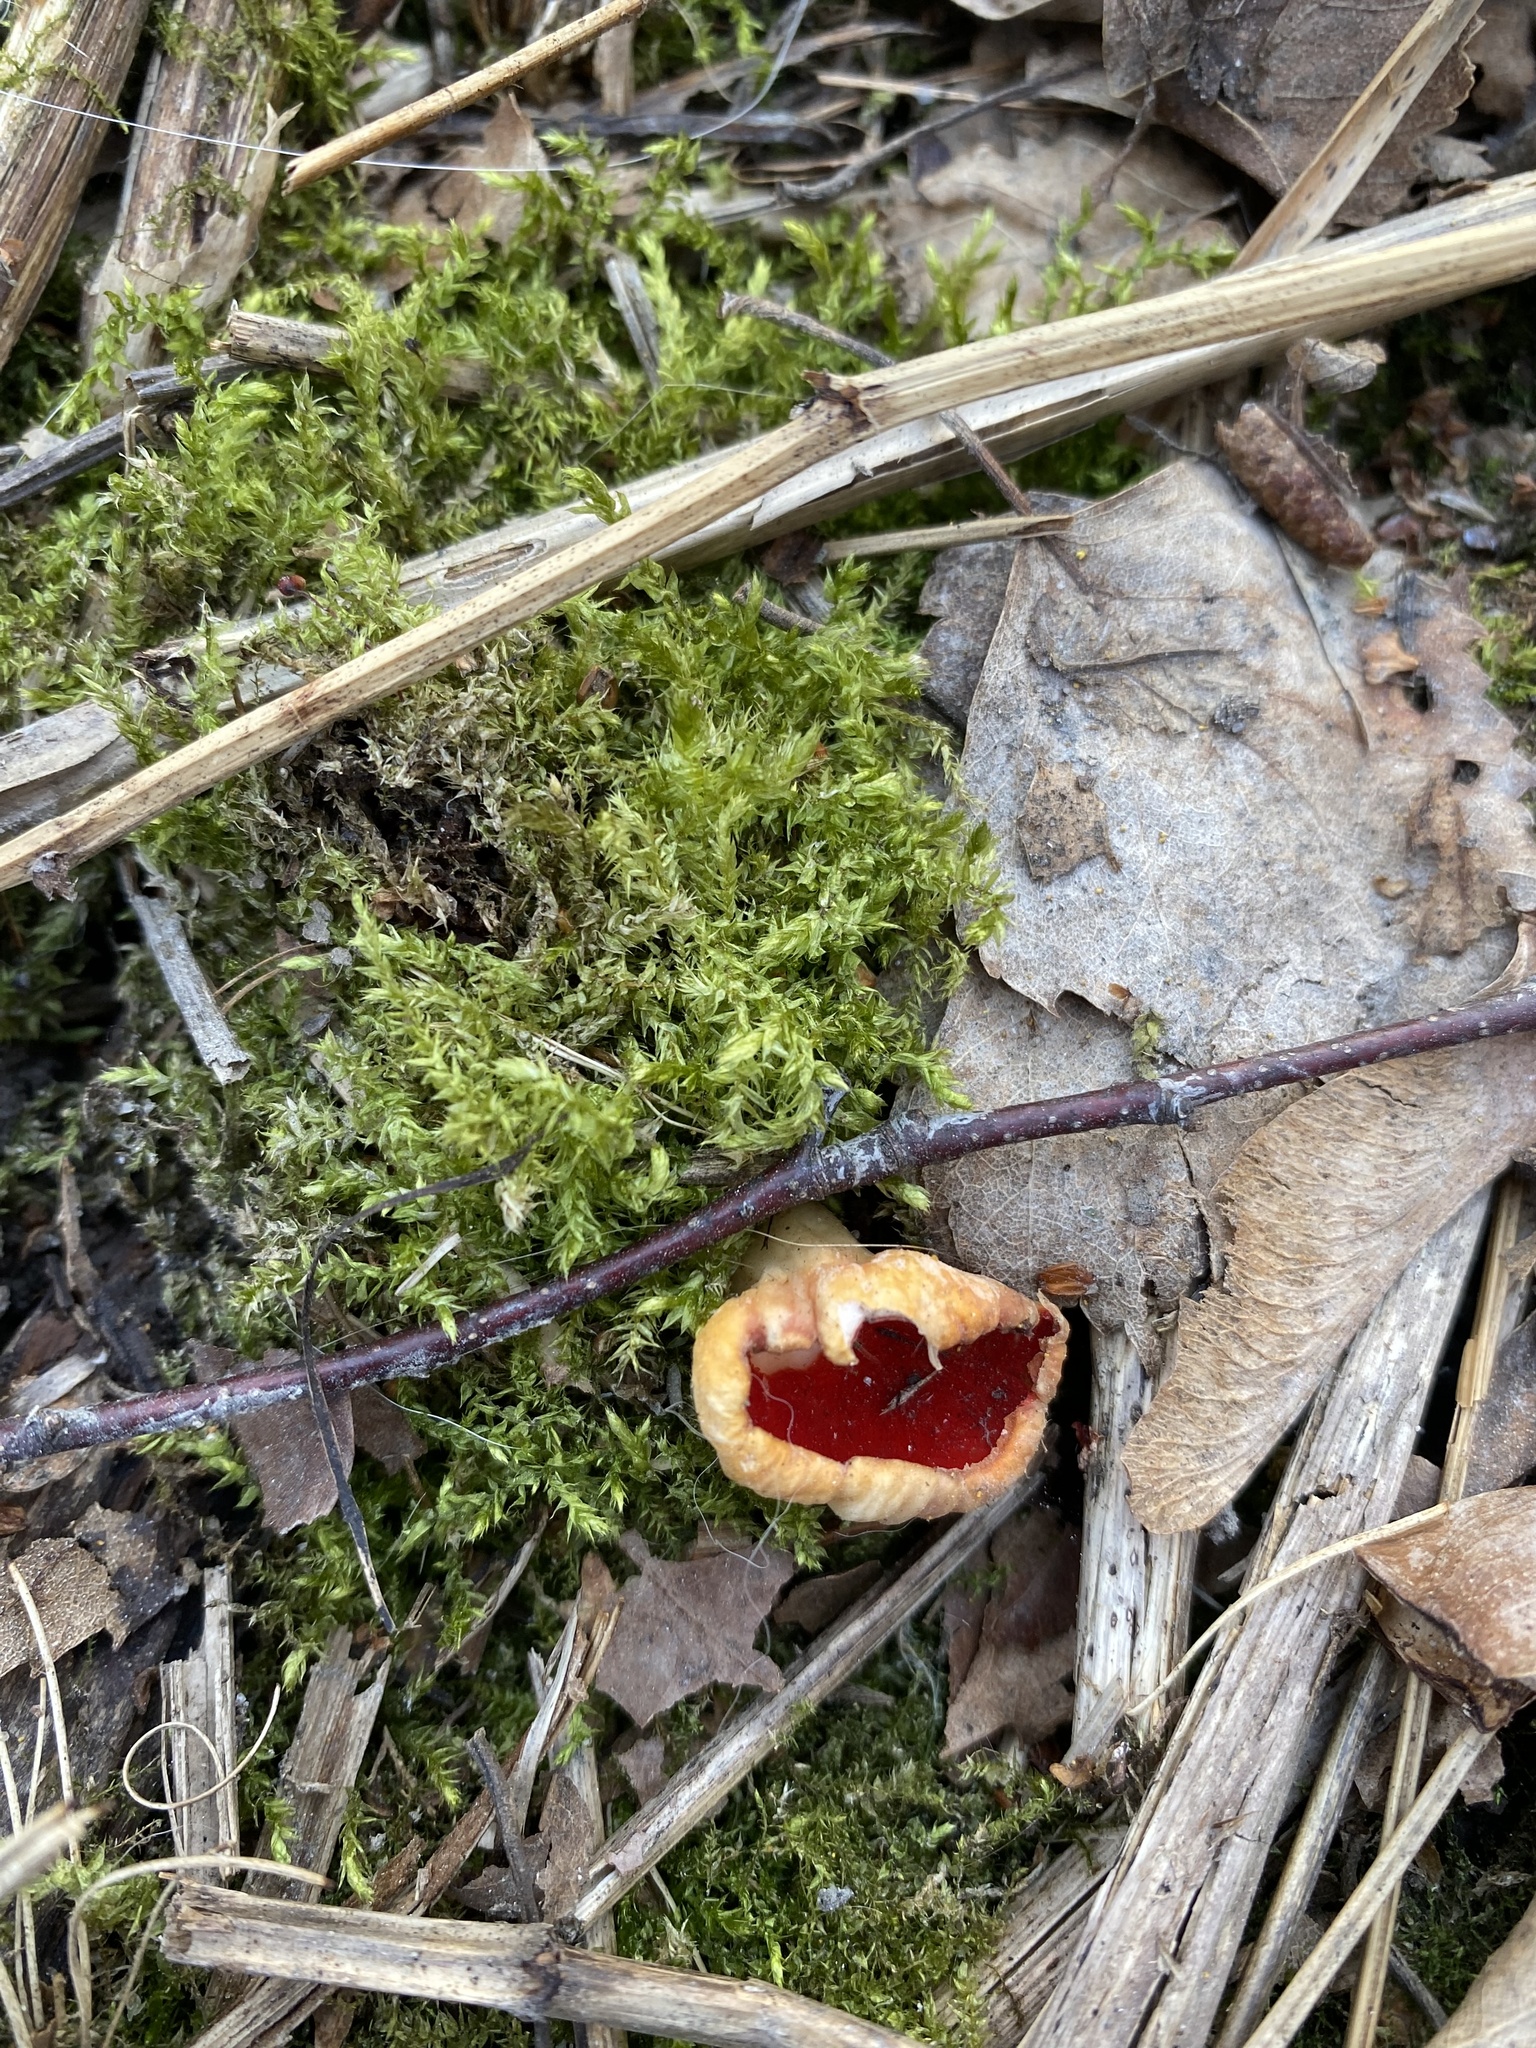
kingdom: Fungi
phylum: Ascomycota
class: Pezizomycetes
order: Pezizales
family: Sarcoscyphaceae
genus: Sarcoscypha
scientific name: Sarcoscypha austriaca
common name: Scarlet elfcup
